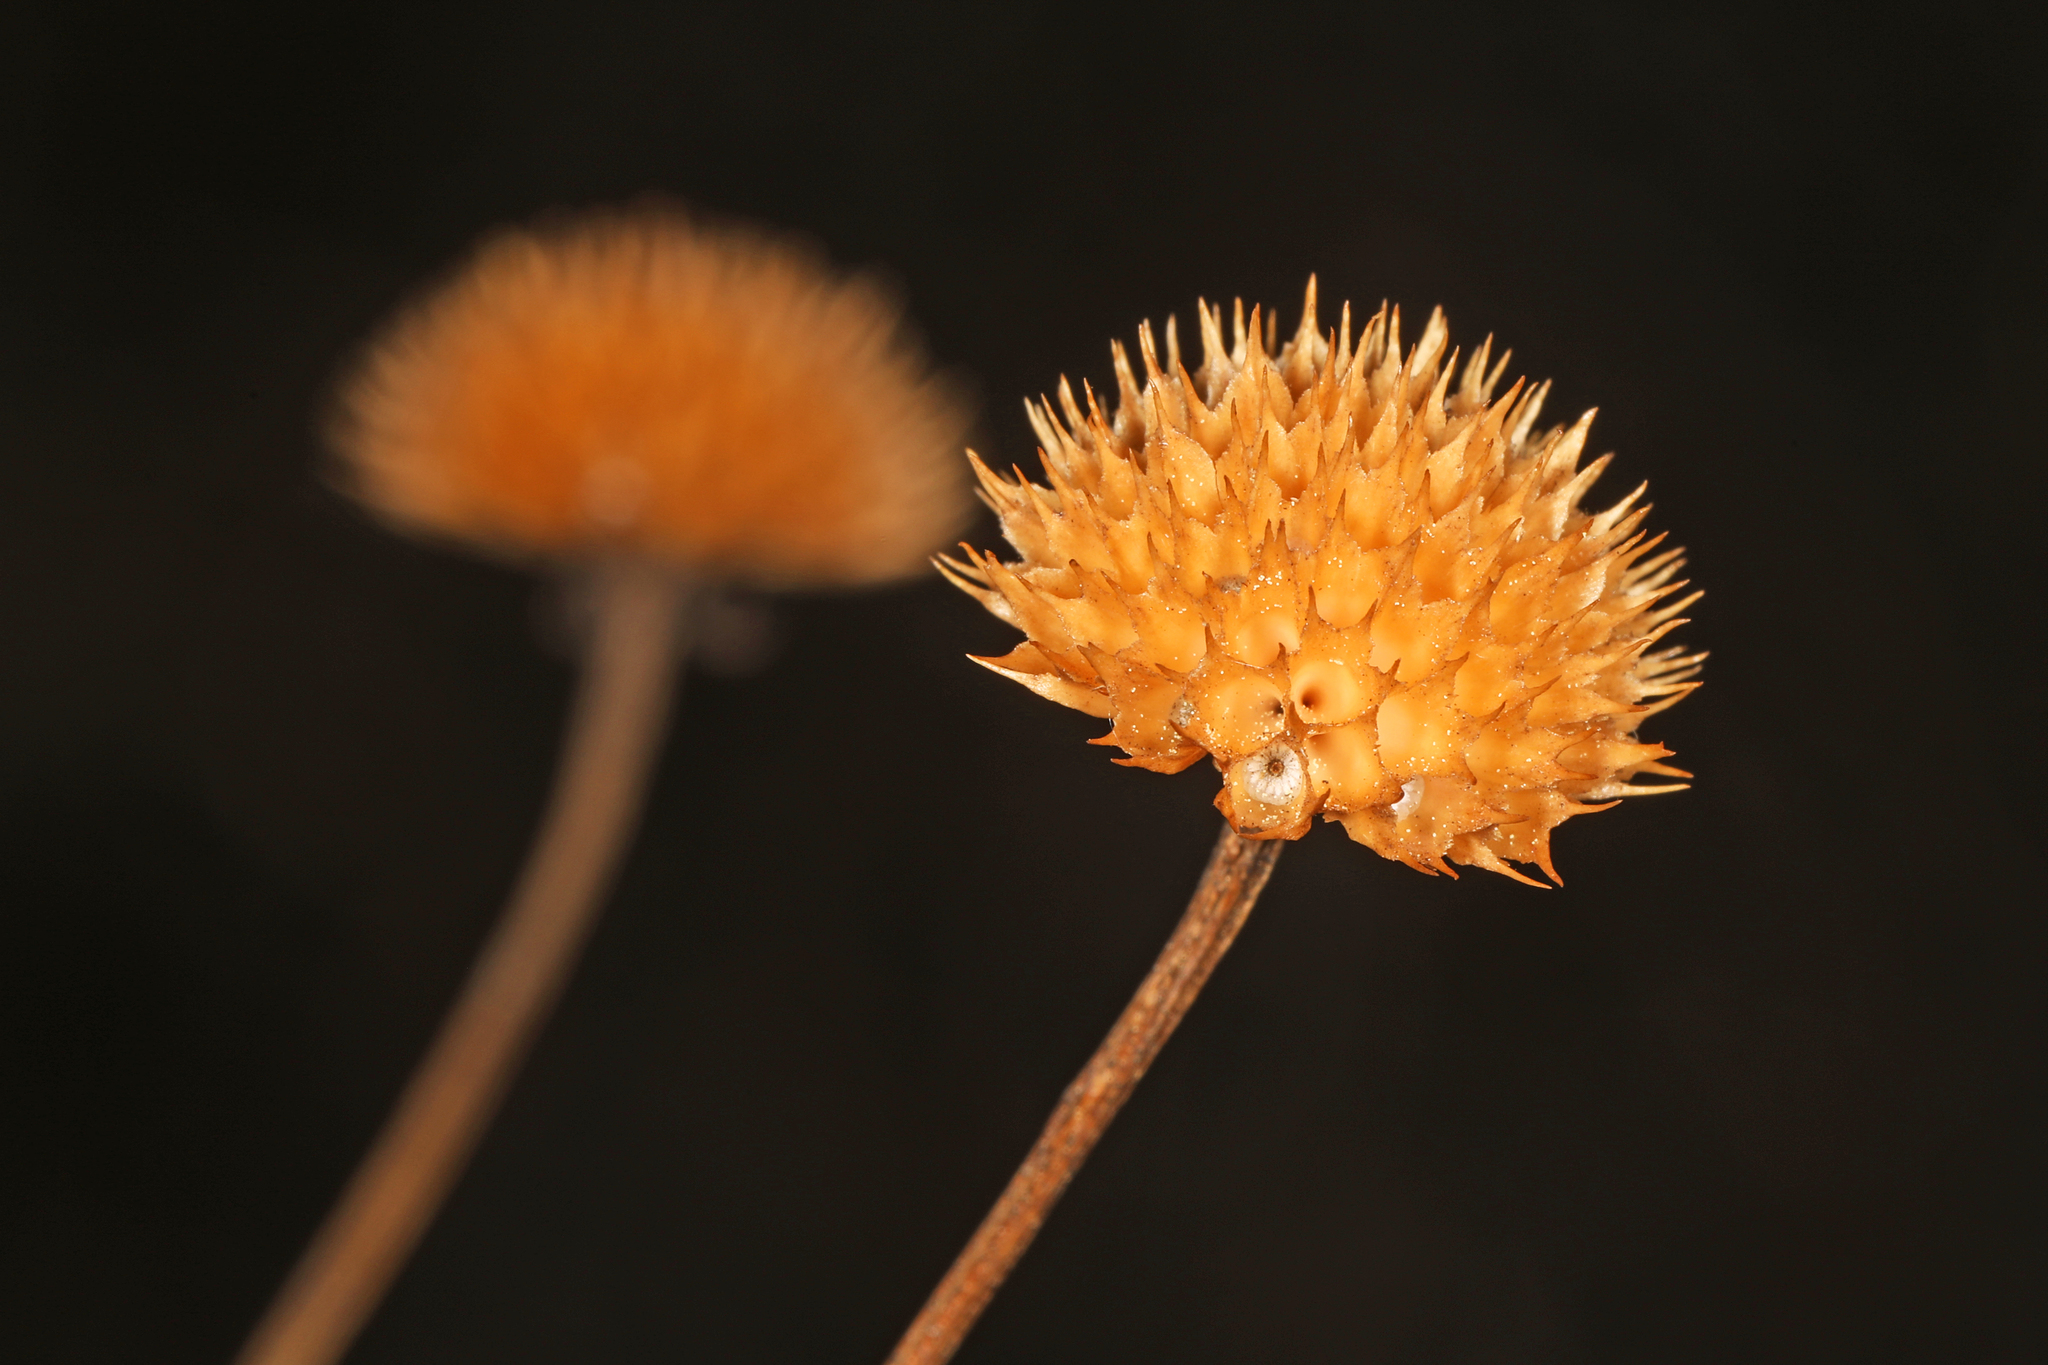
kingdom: Plantae
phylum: Tracheophyta
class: Magnoliopsida
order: Asterales
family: Asteraceae
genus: Balduina
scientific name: Balduina angustifolia
